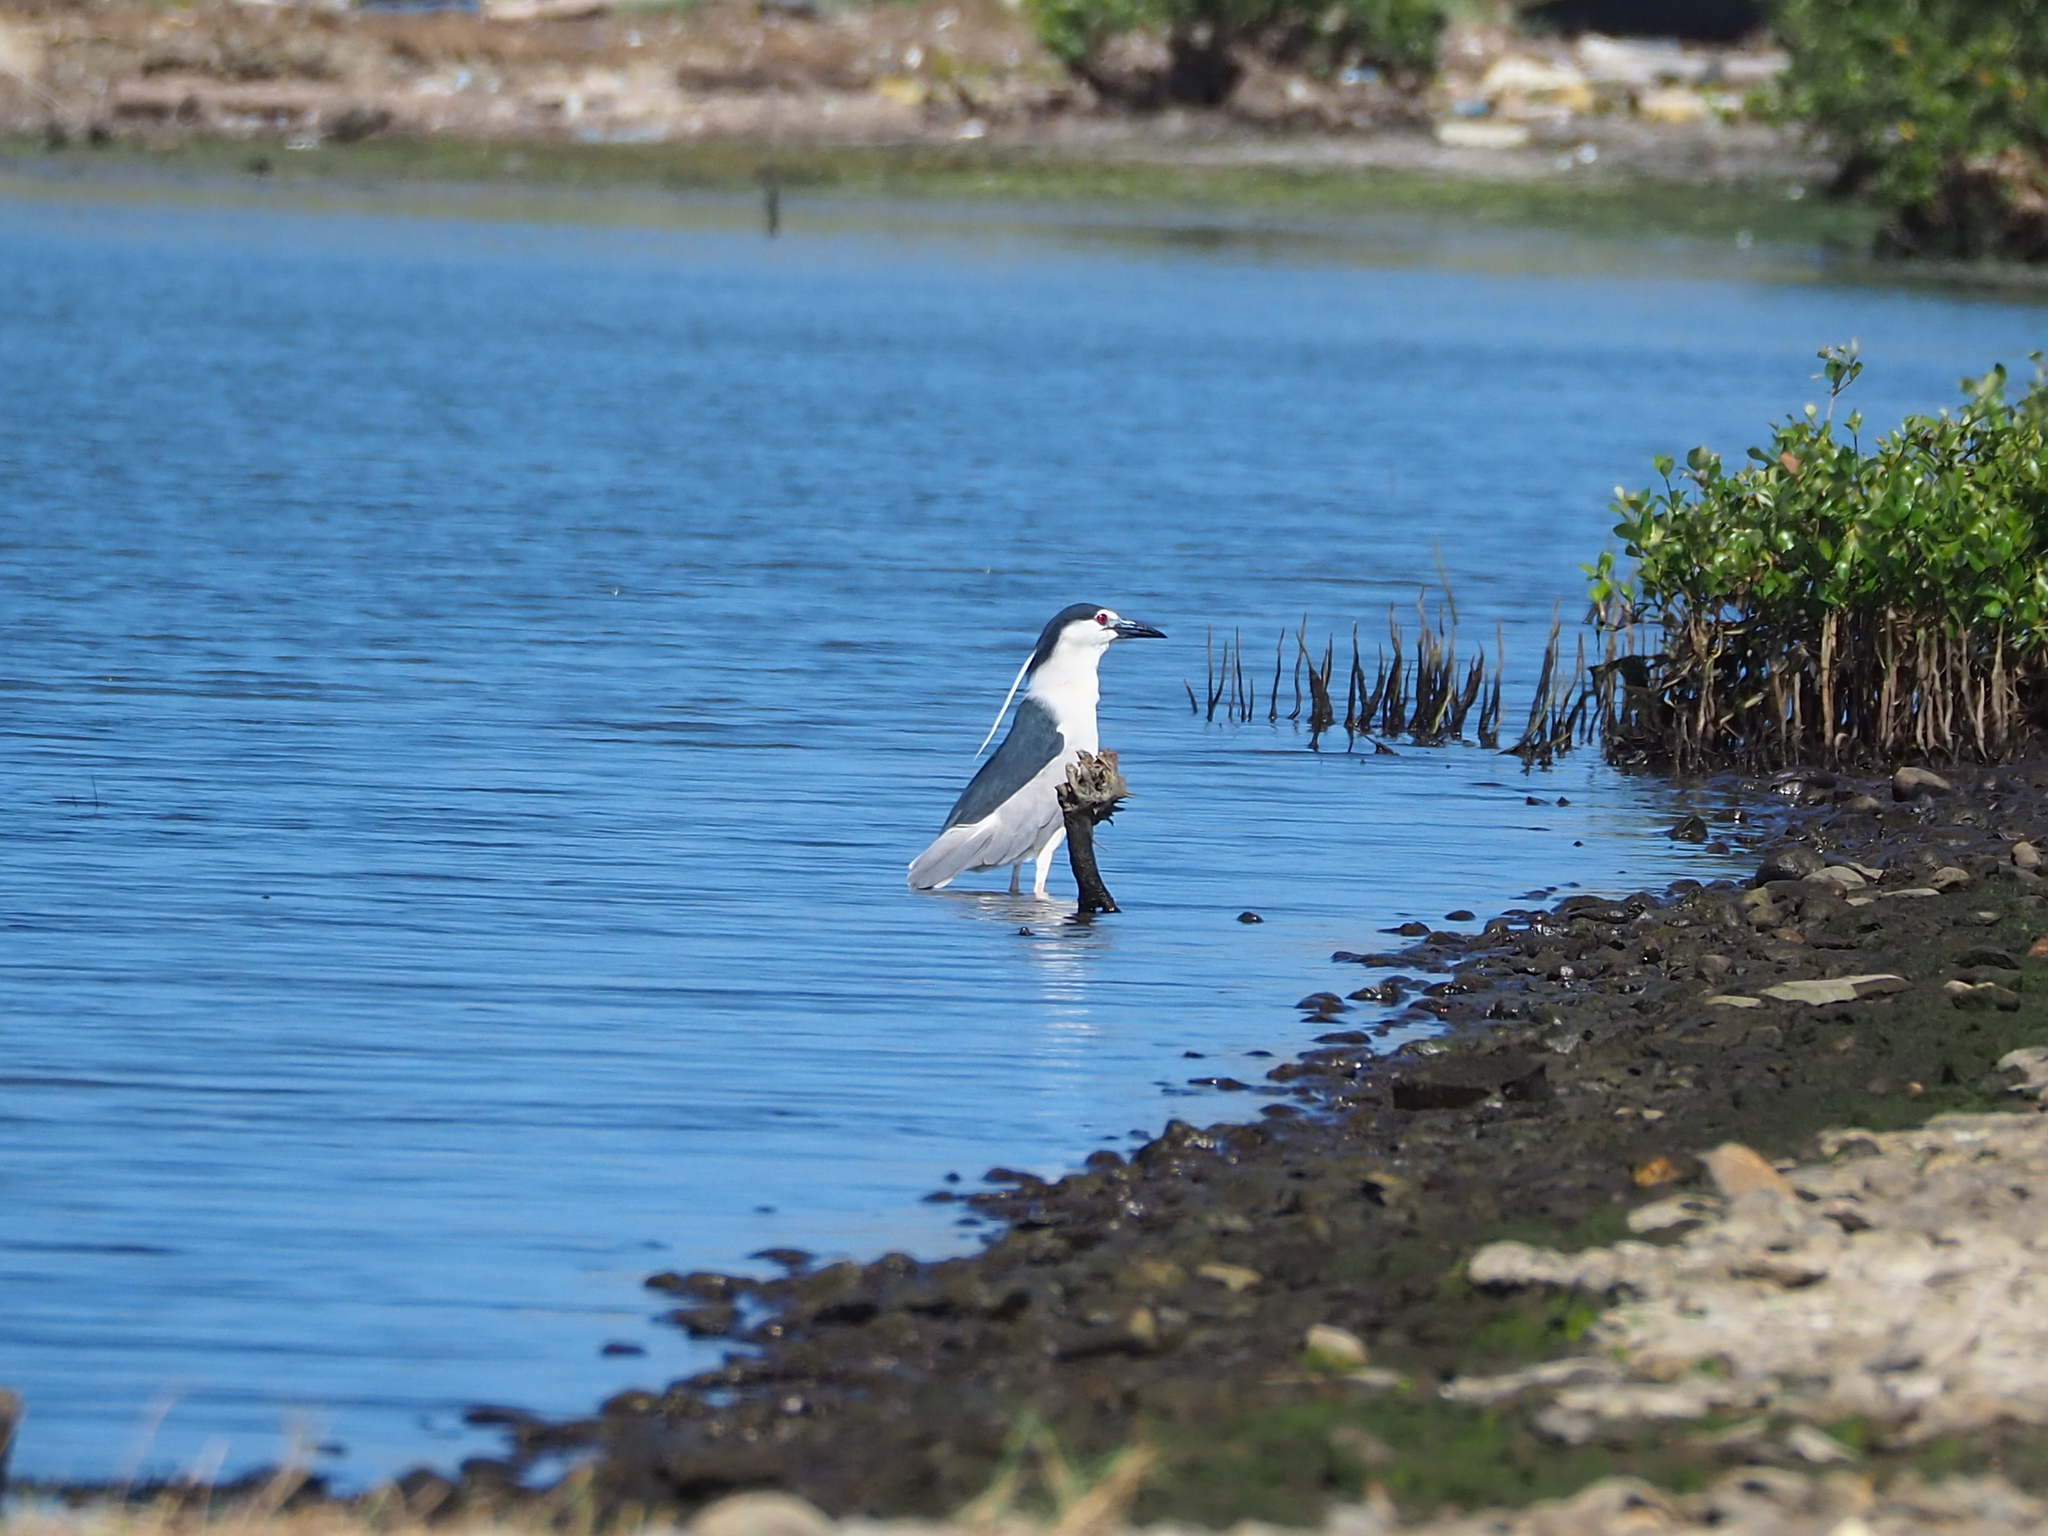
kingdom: Animalia
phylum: Chordata
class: Aves
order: Pelecaniformes
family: Ardeidae
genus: Nycticorax
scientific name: Nycticorax nycticorax
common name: Black-crowned night heron
